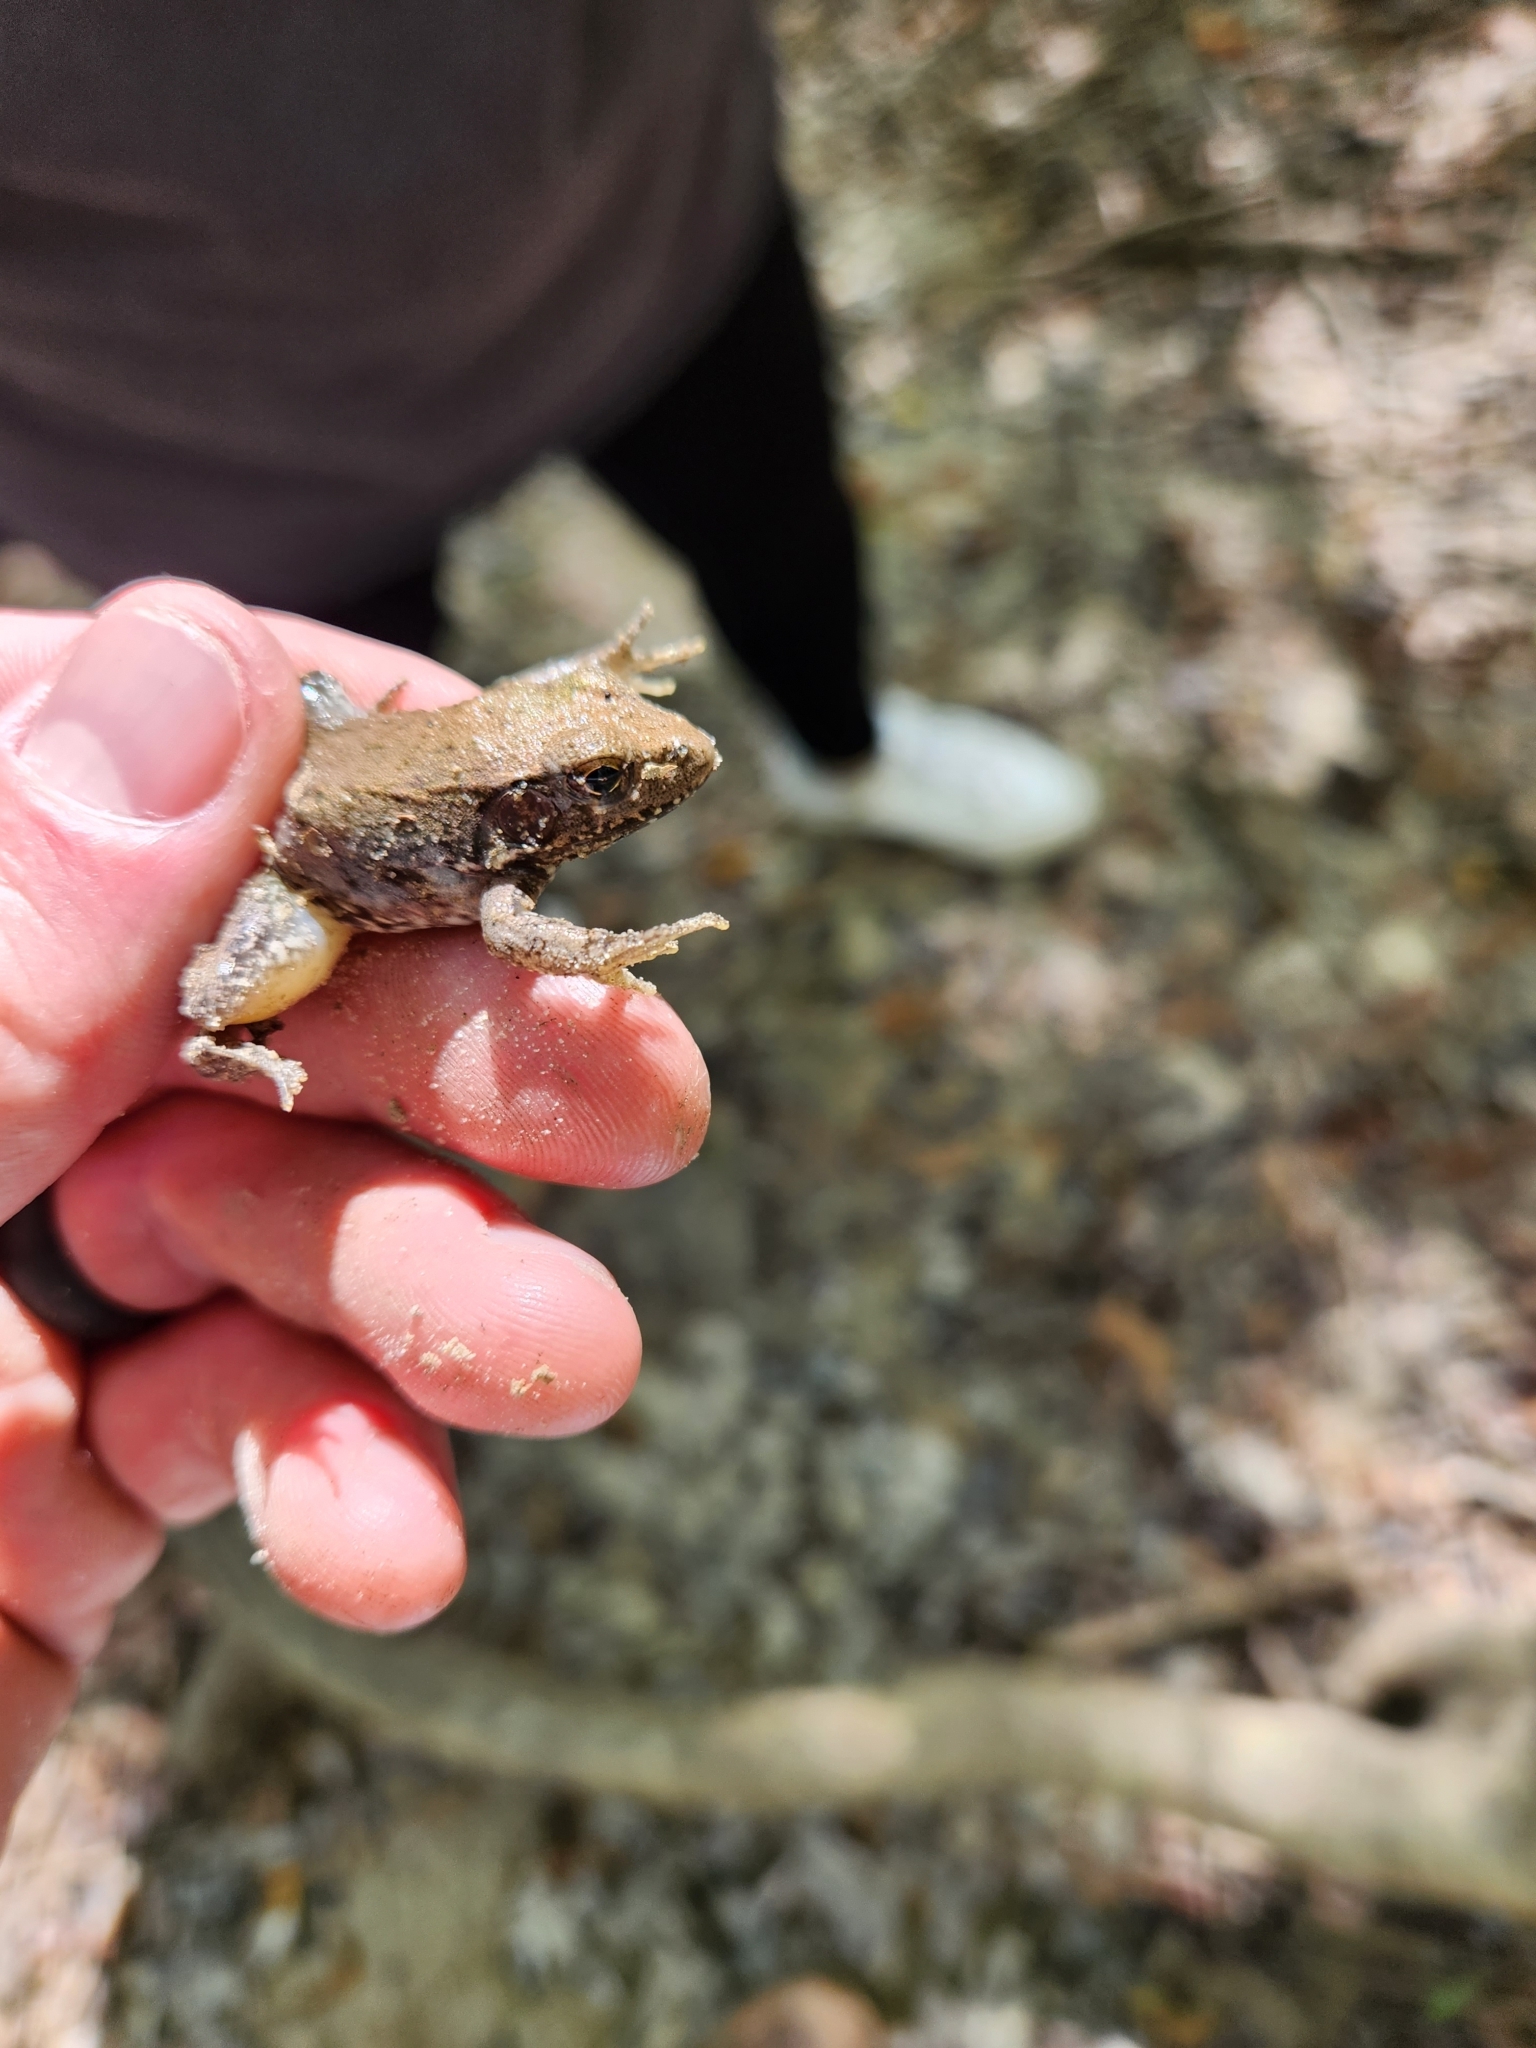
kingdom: Animalia
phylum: Chordata
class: Amphibia
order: Anura
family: Ranidae
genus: Lithobates
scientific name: Lithobates clamitans
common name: Green frog
